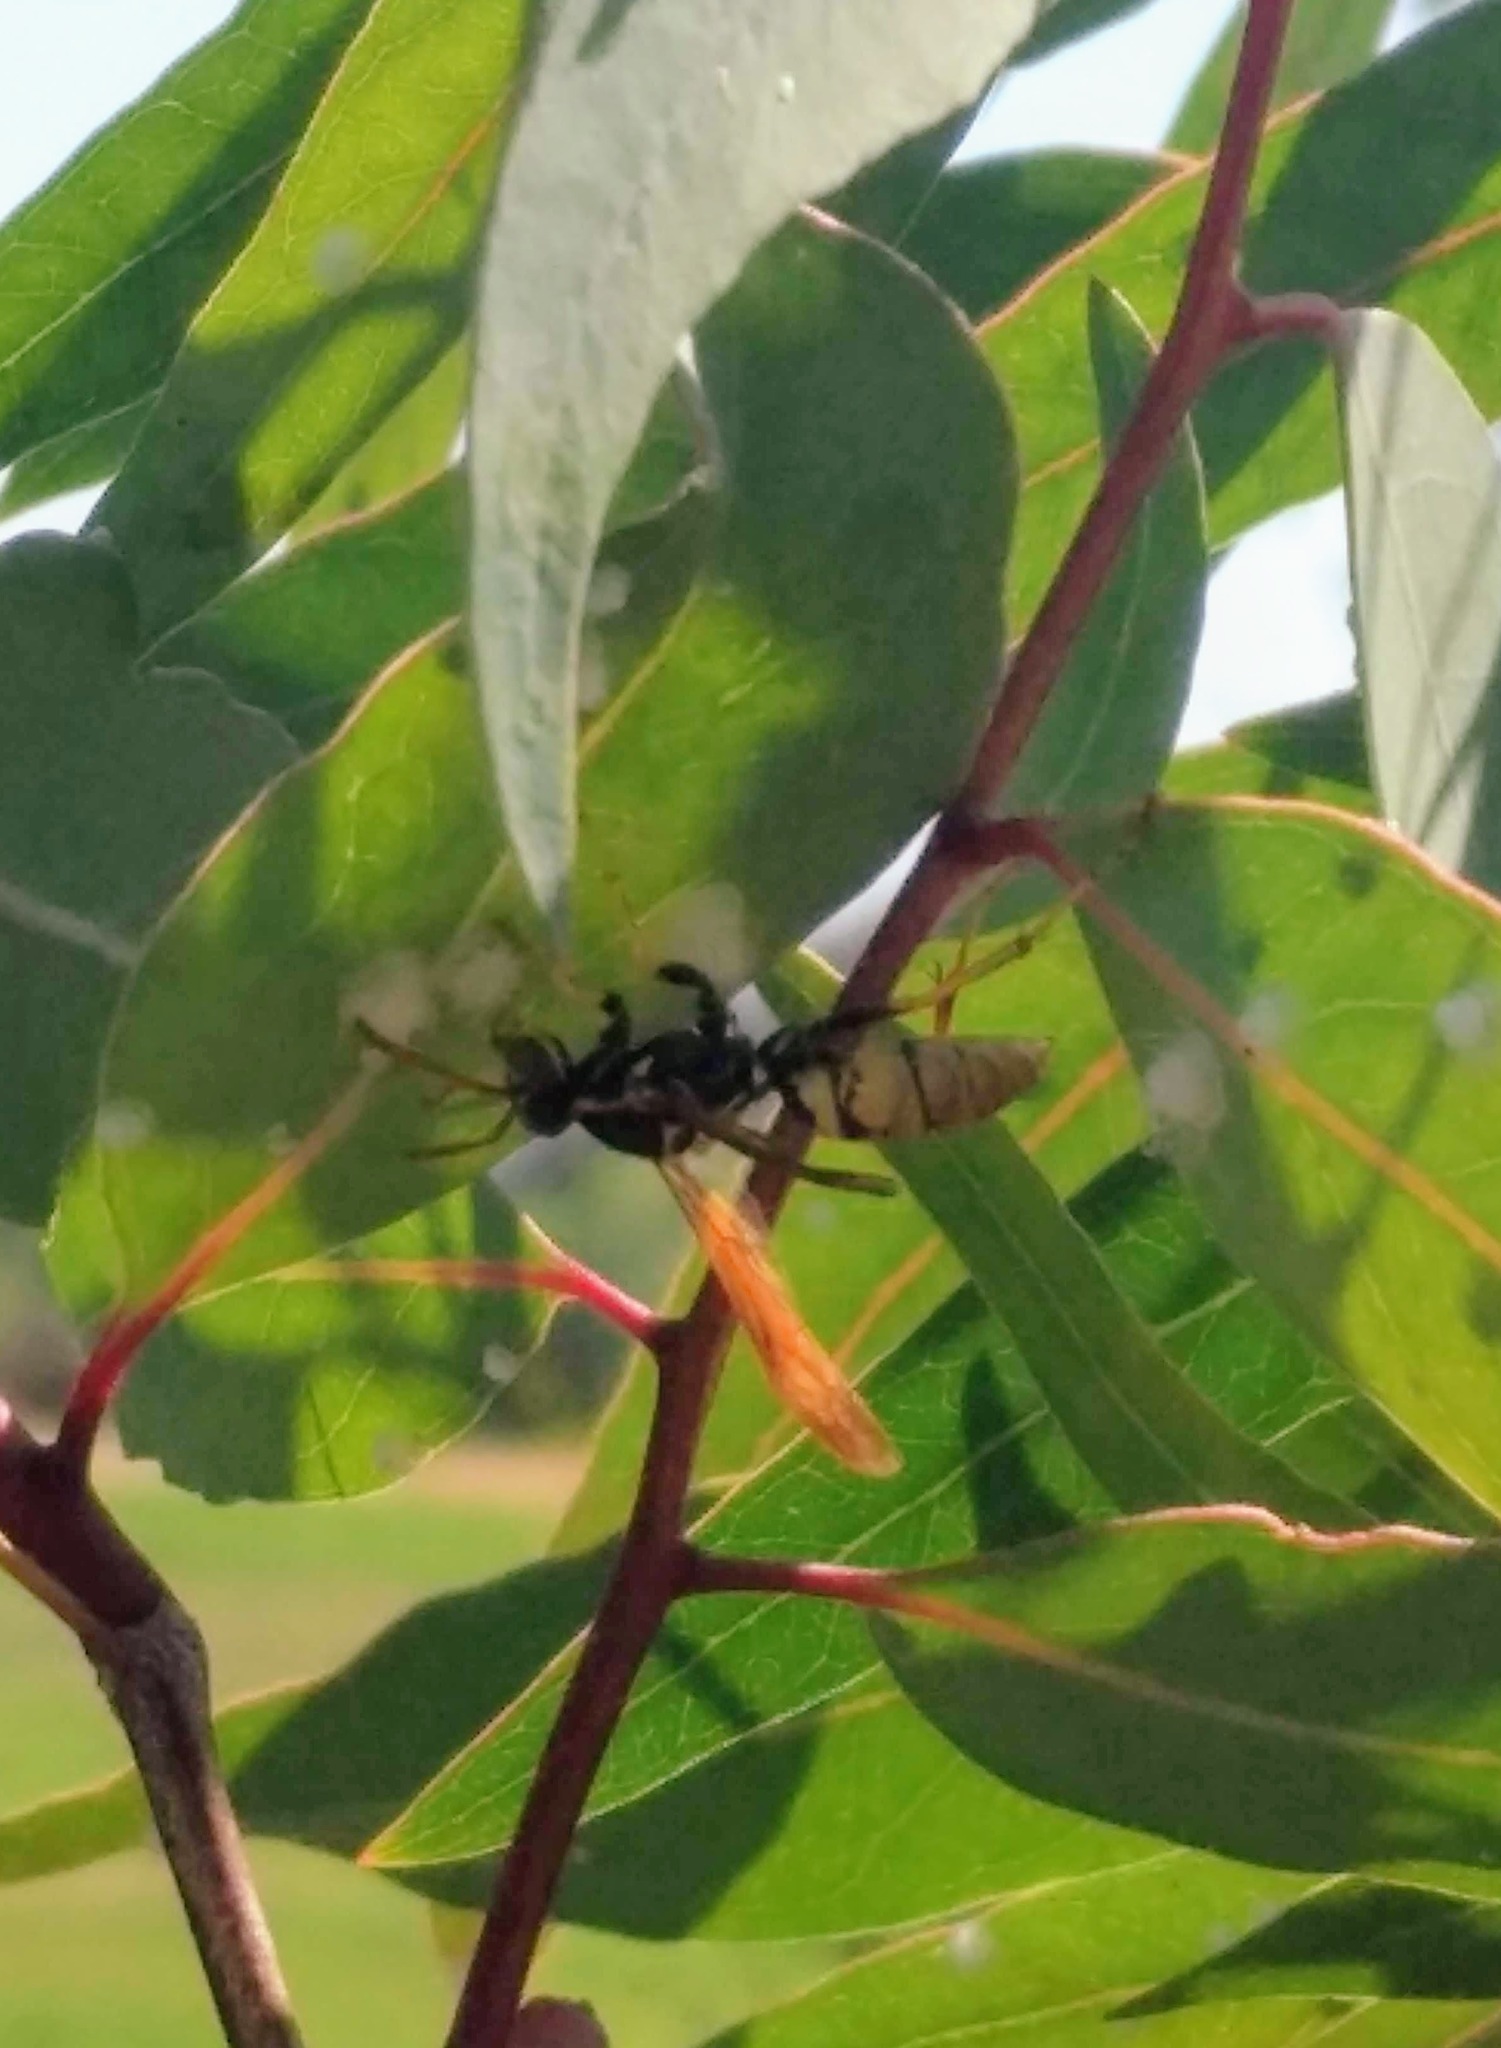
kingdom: Animalia
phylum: Arthropoda
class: Insecta
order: Hymenoptera
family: Eumenidae
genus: Polistes
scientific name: Polistes aurifer
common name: Paper wasp
